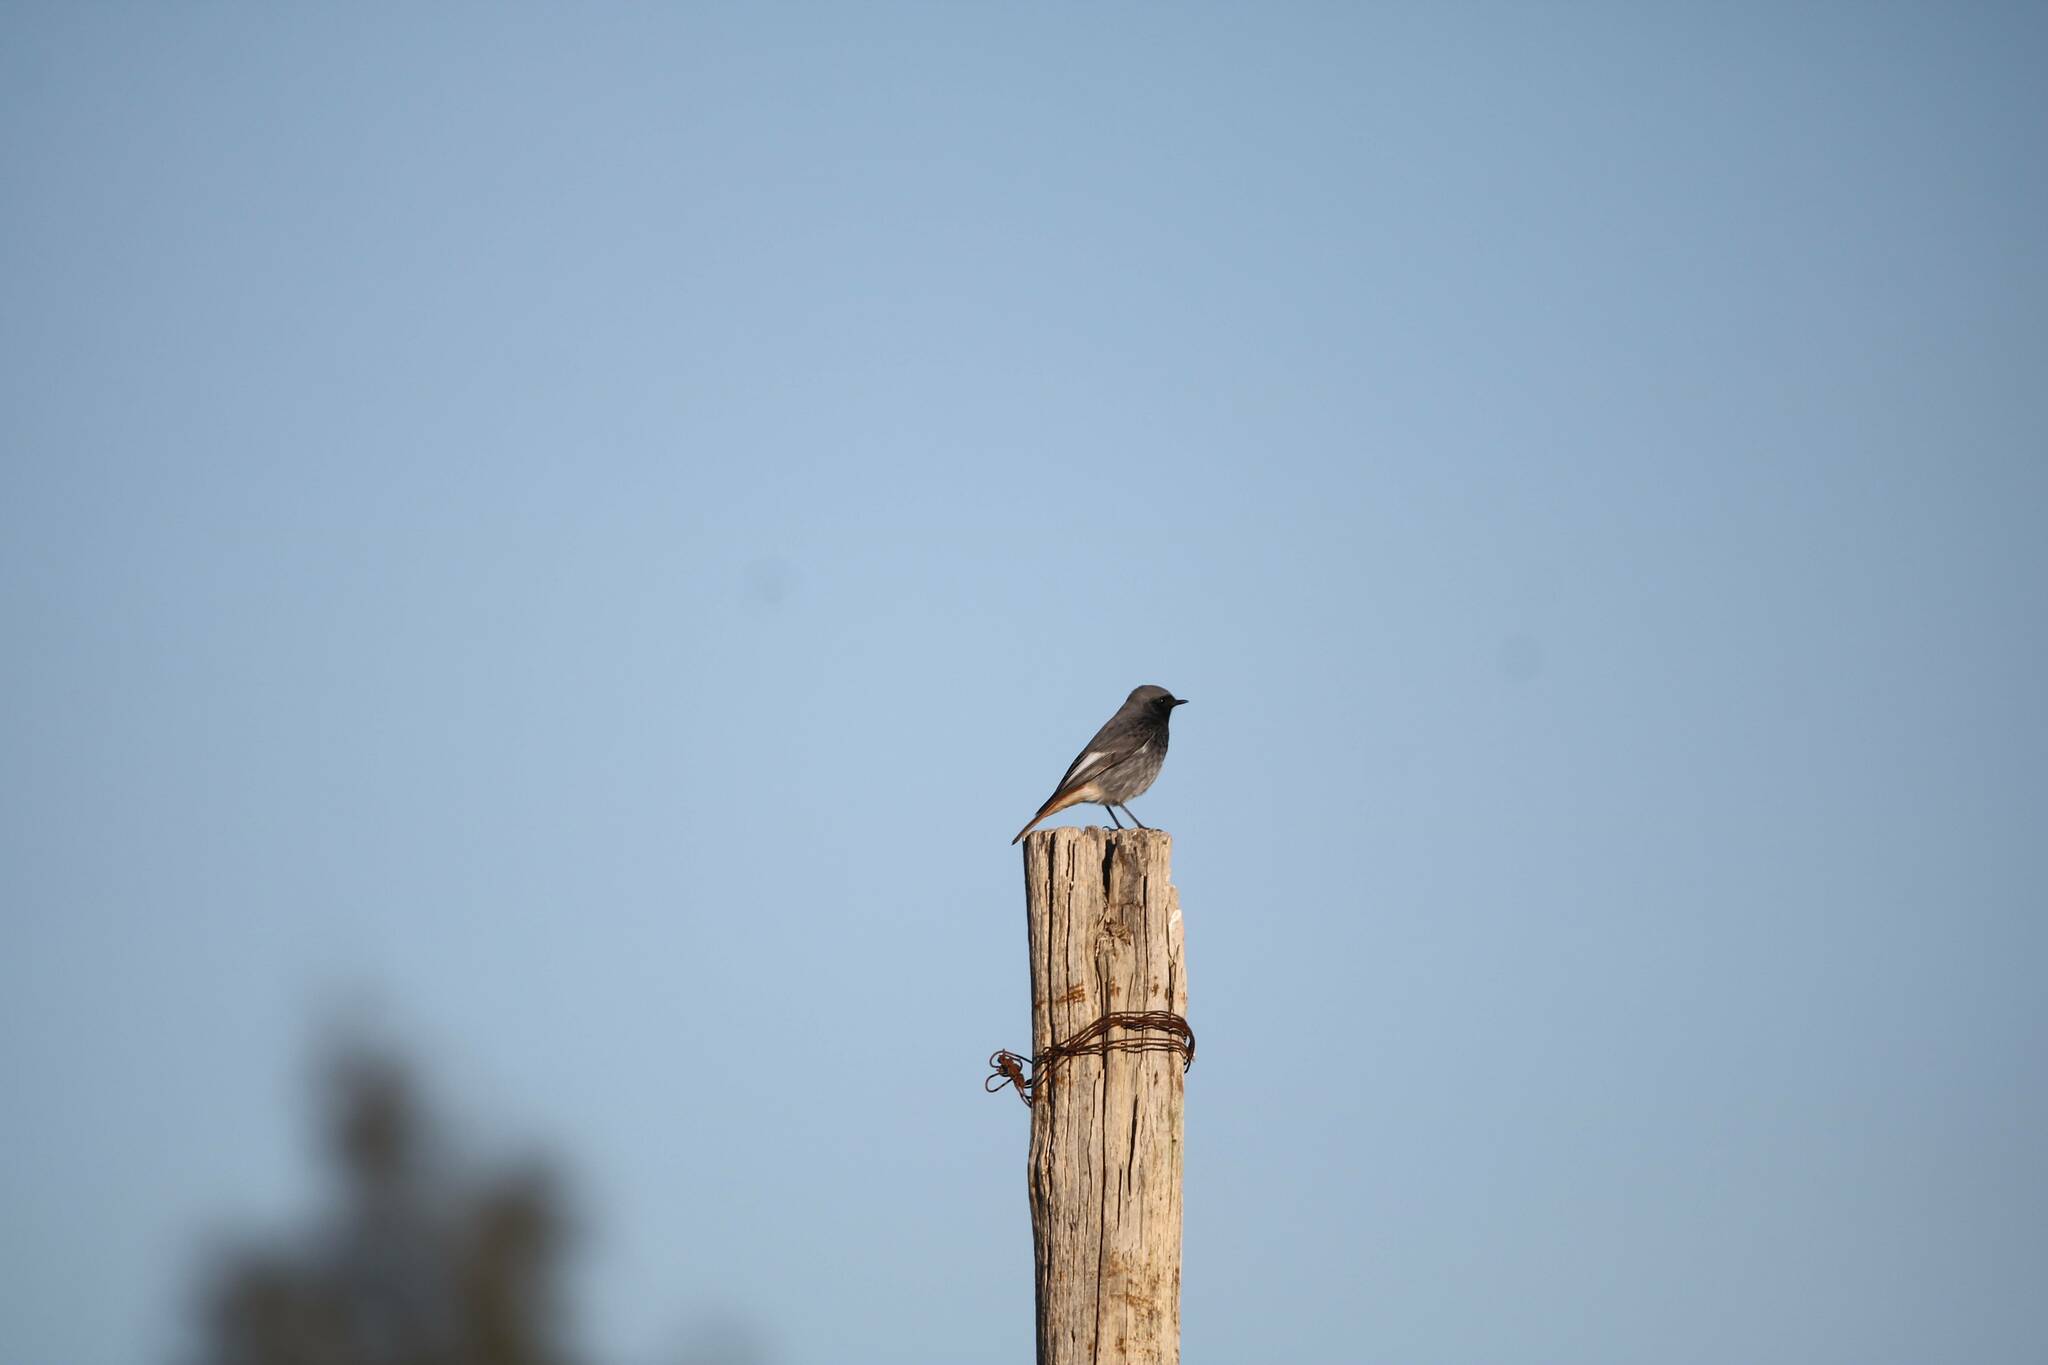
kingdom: Animalia
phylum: Chordata
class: Aves
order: Passeriformes
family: Muscicapidae
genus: Phoenicurus
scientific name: Phoenicurus ochruros
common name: Black redstart
